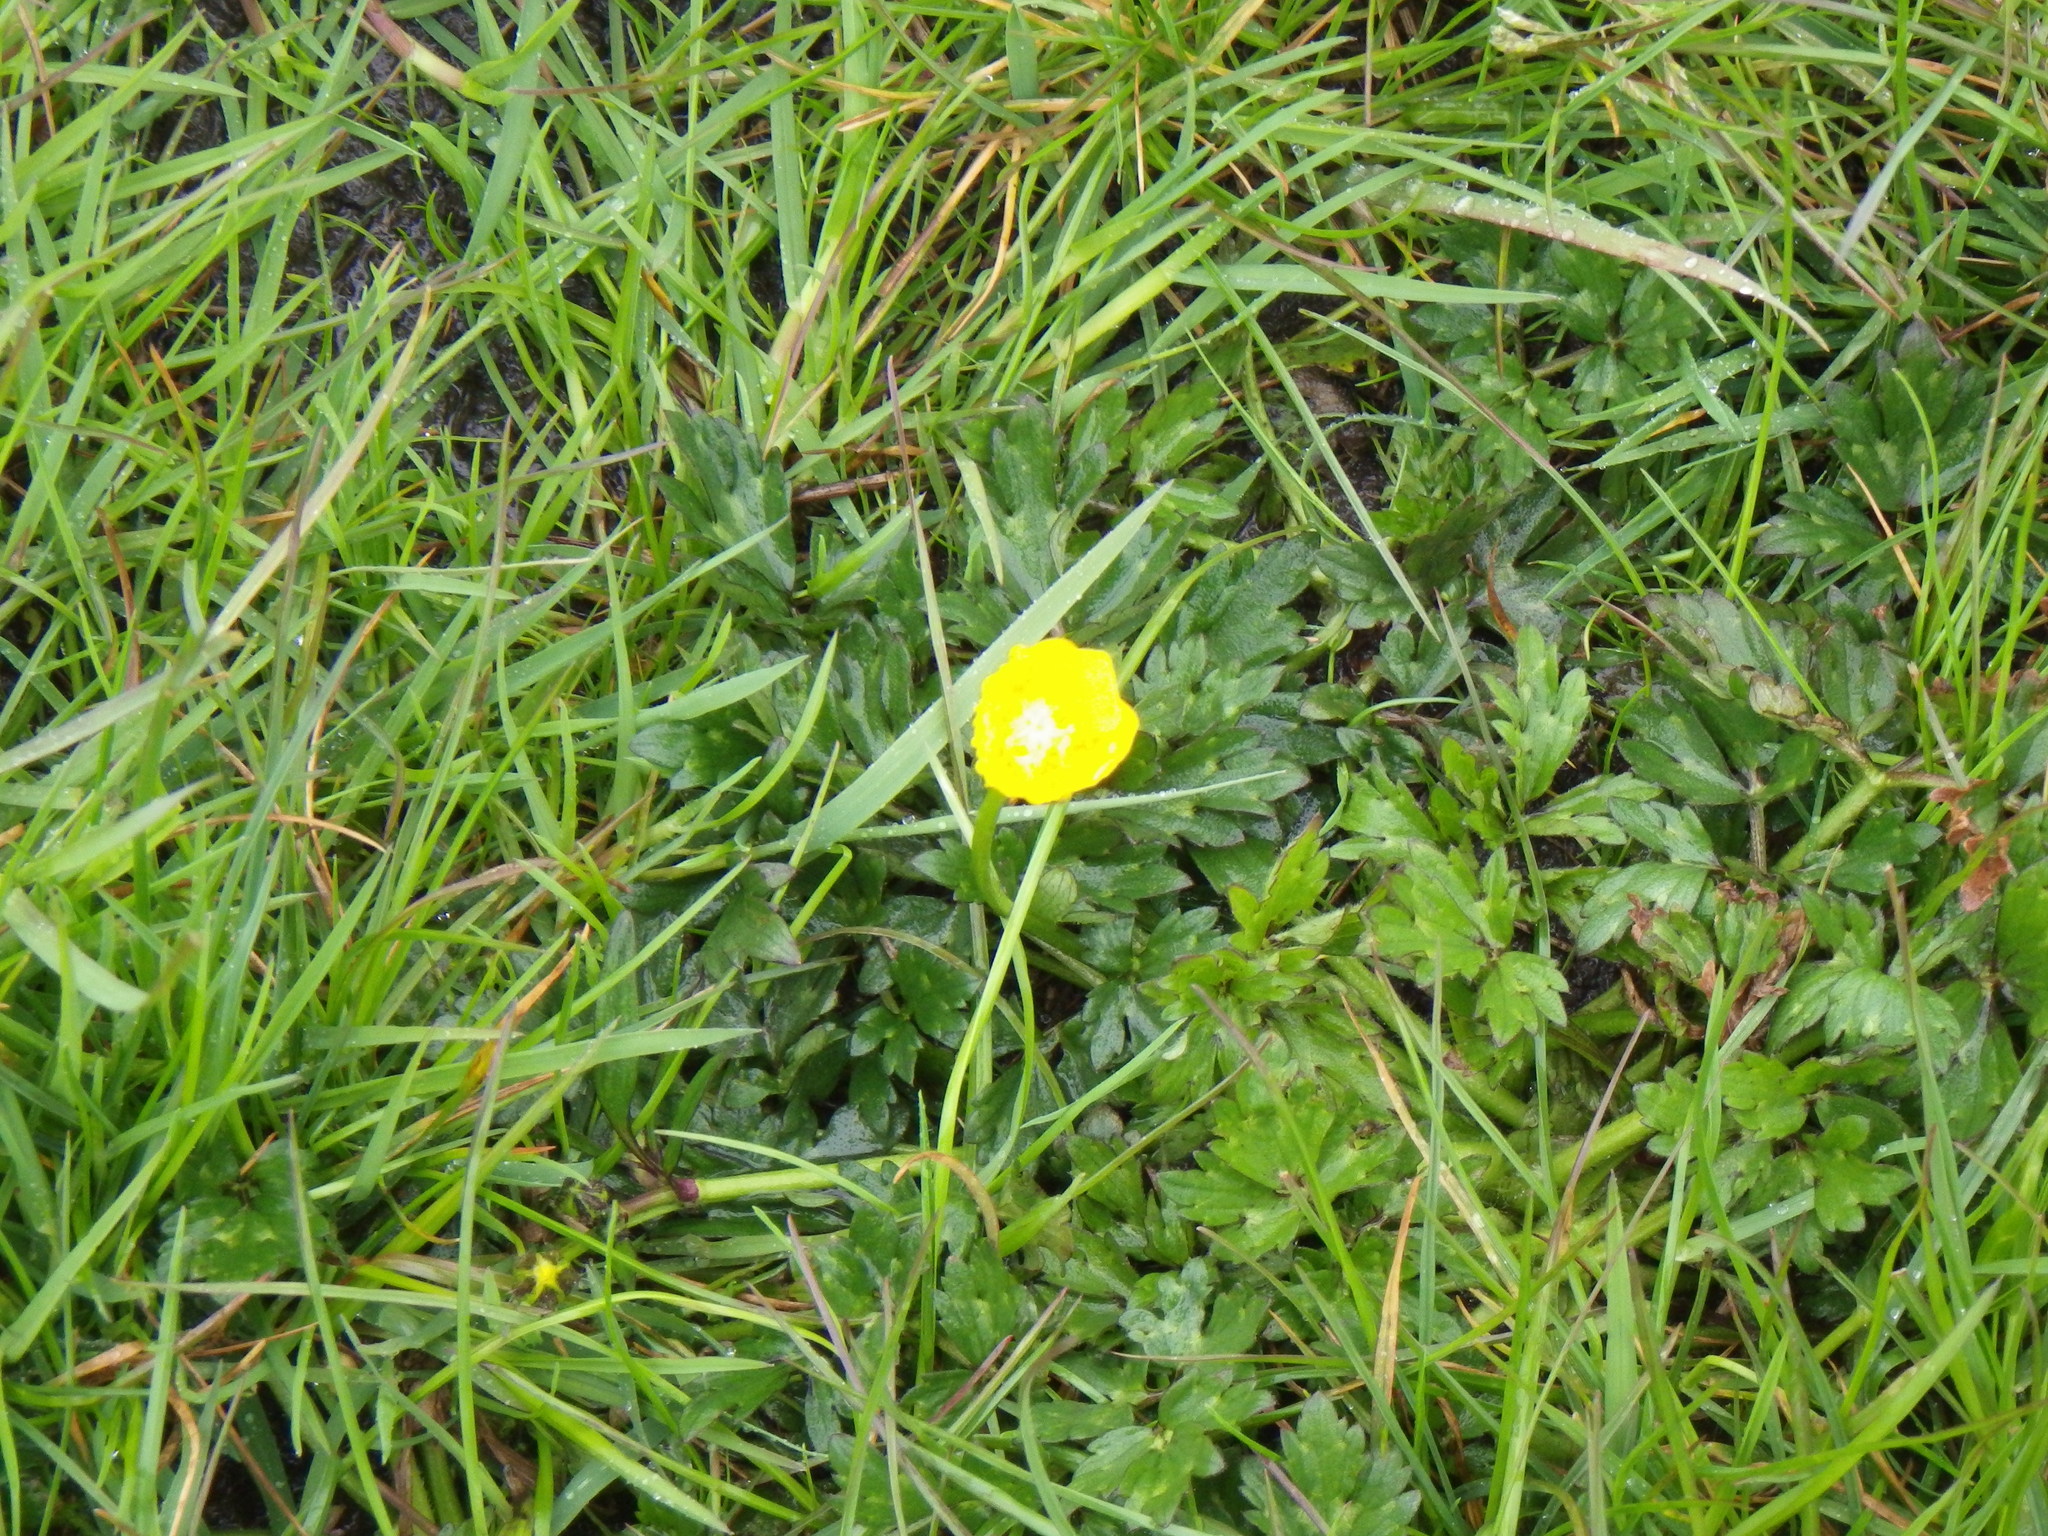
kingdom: Plantae
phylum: Tracheophyta
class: Magnoliopsida
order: Ranunculales
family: Ranunculaceae
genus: Ranunculus
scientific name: Ranunculus repens
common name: Creeping buttercup
